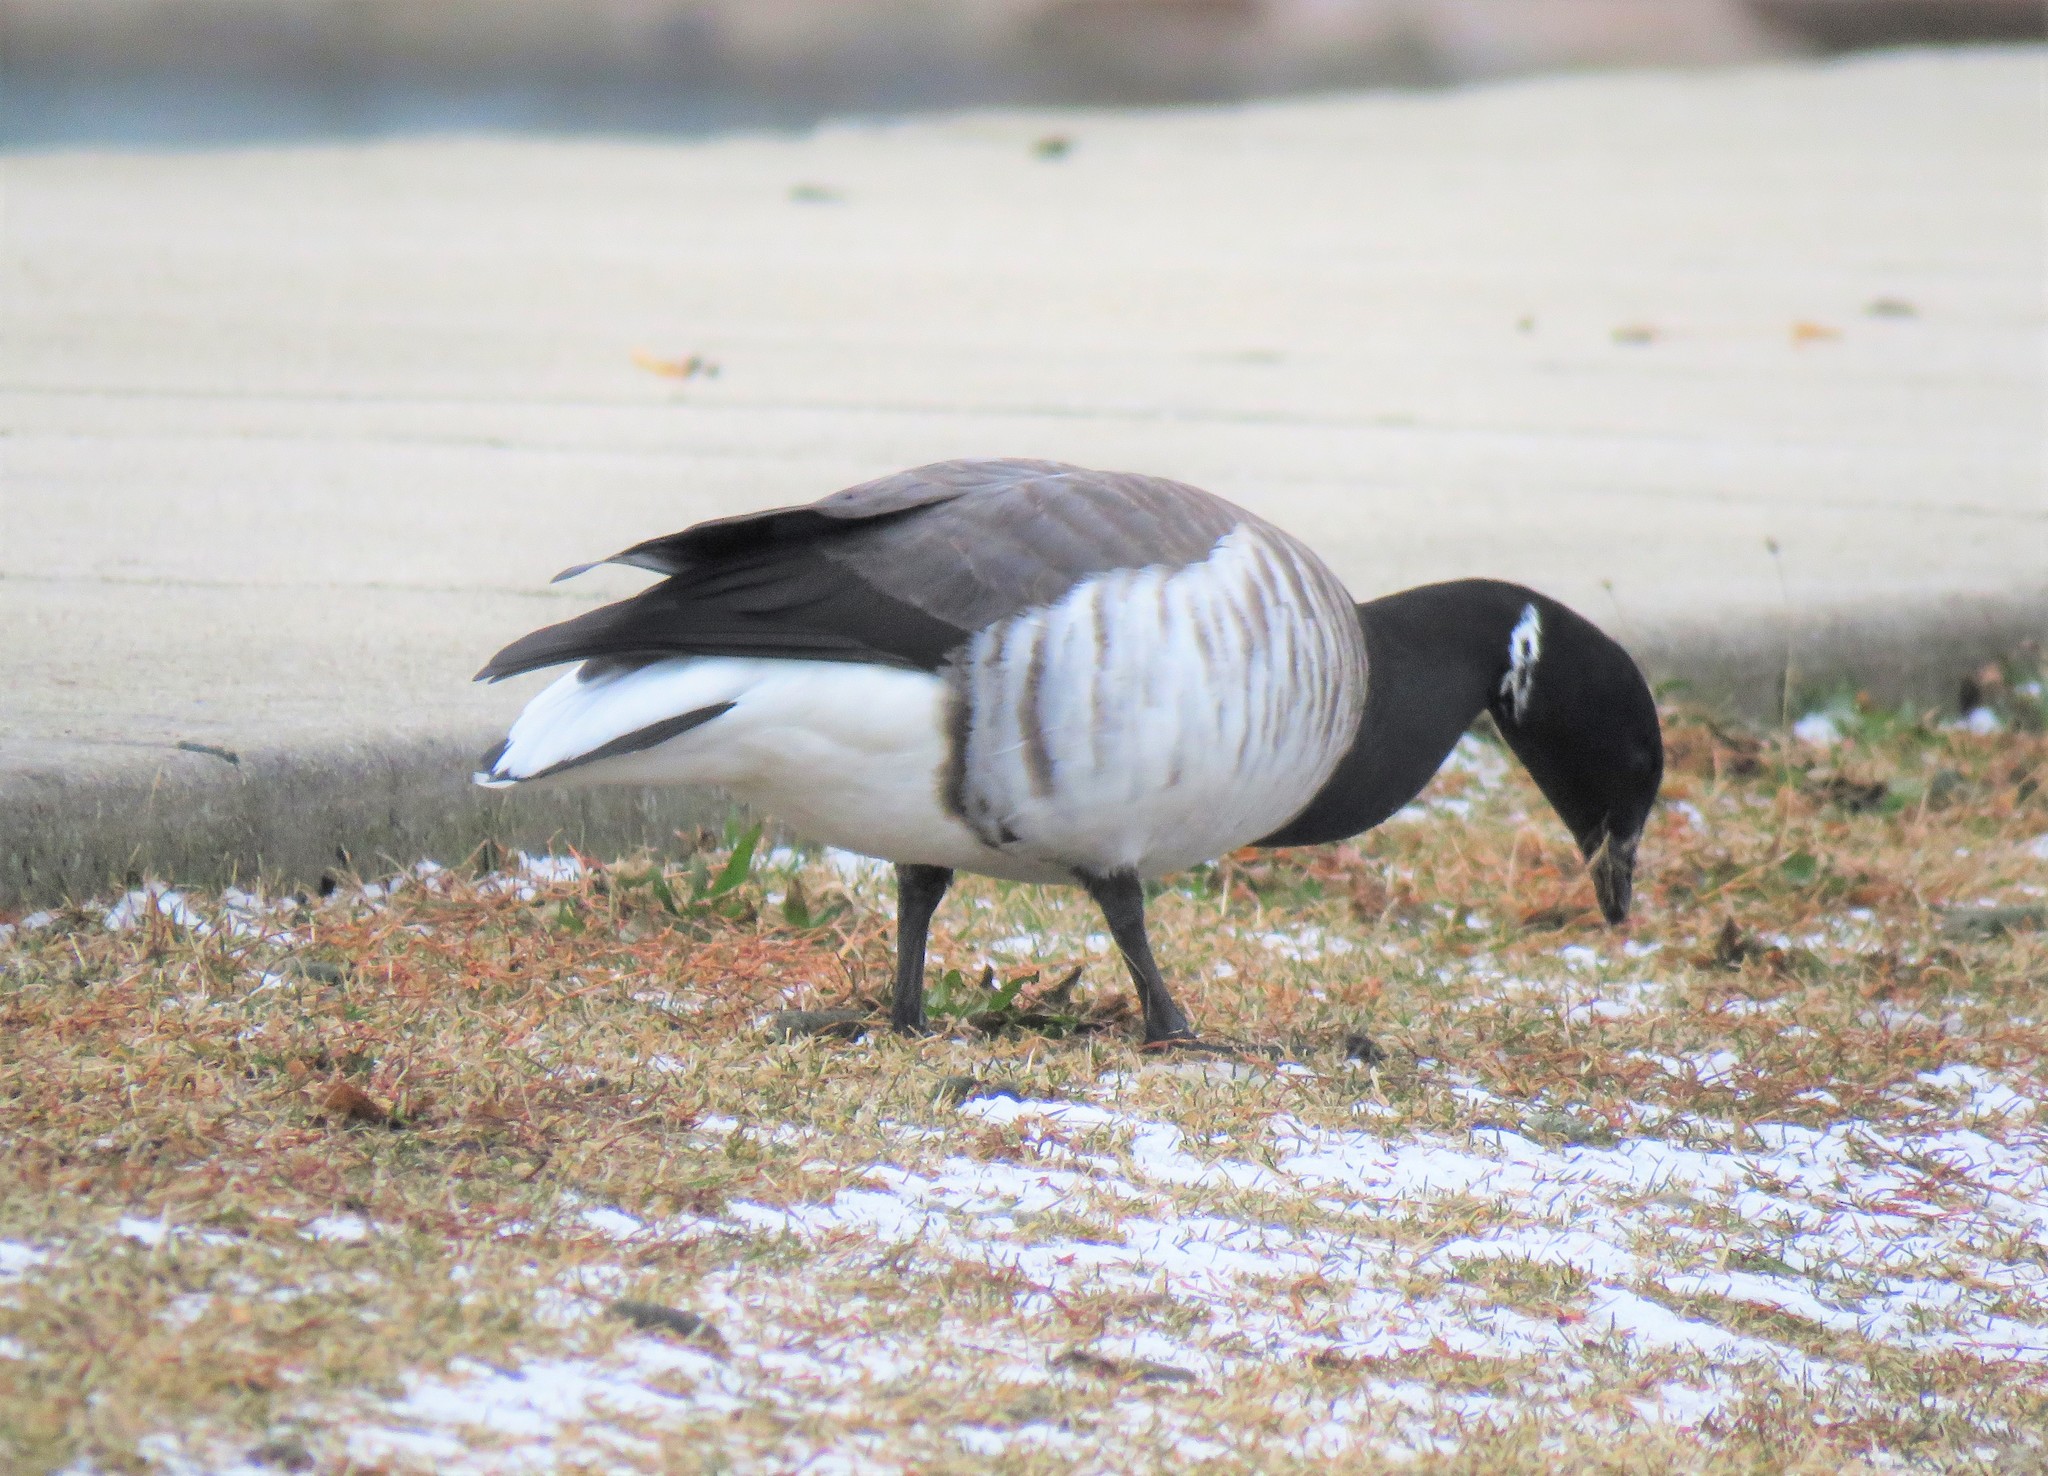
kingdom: Animalia
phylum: Chordata
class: Aves
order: Anseriformes
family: Anatidae
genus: Branta
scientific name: Branta bernicla
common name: Brant goose
